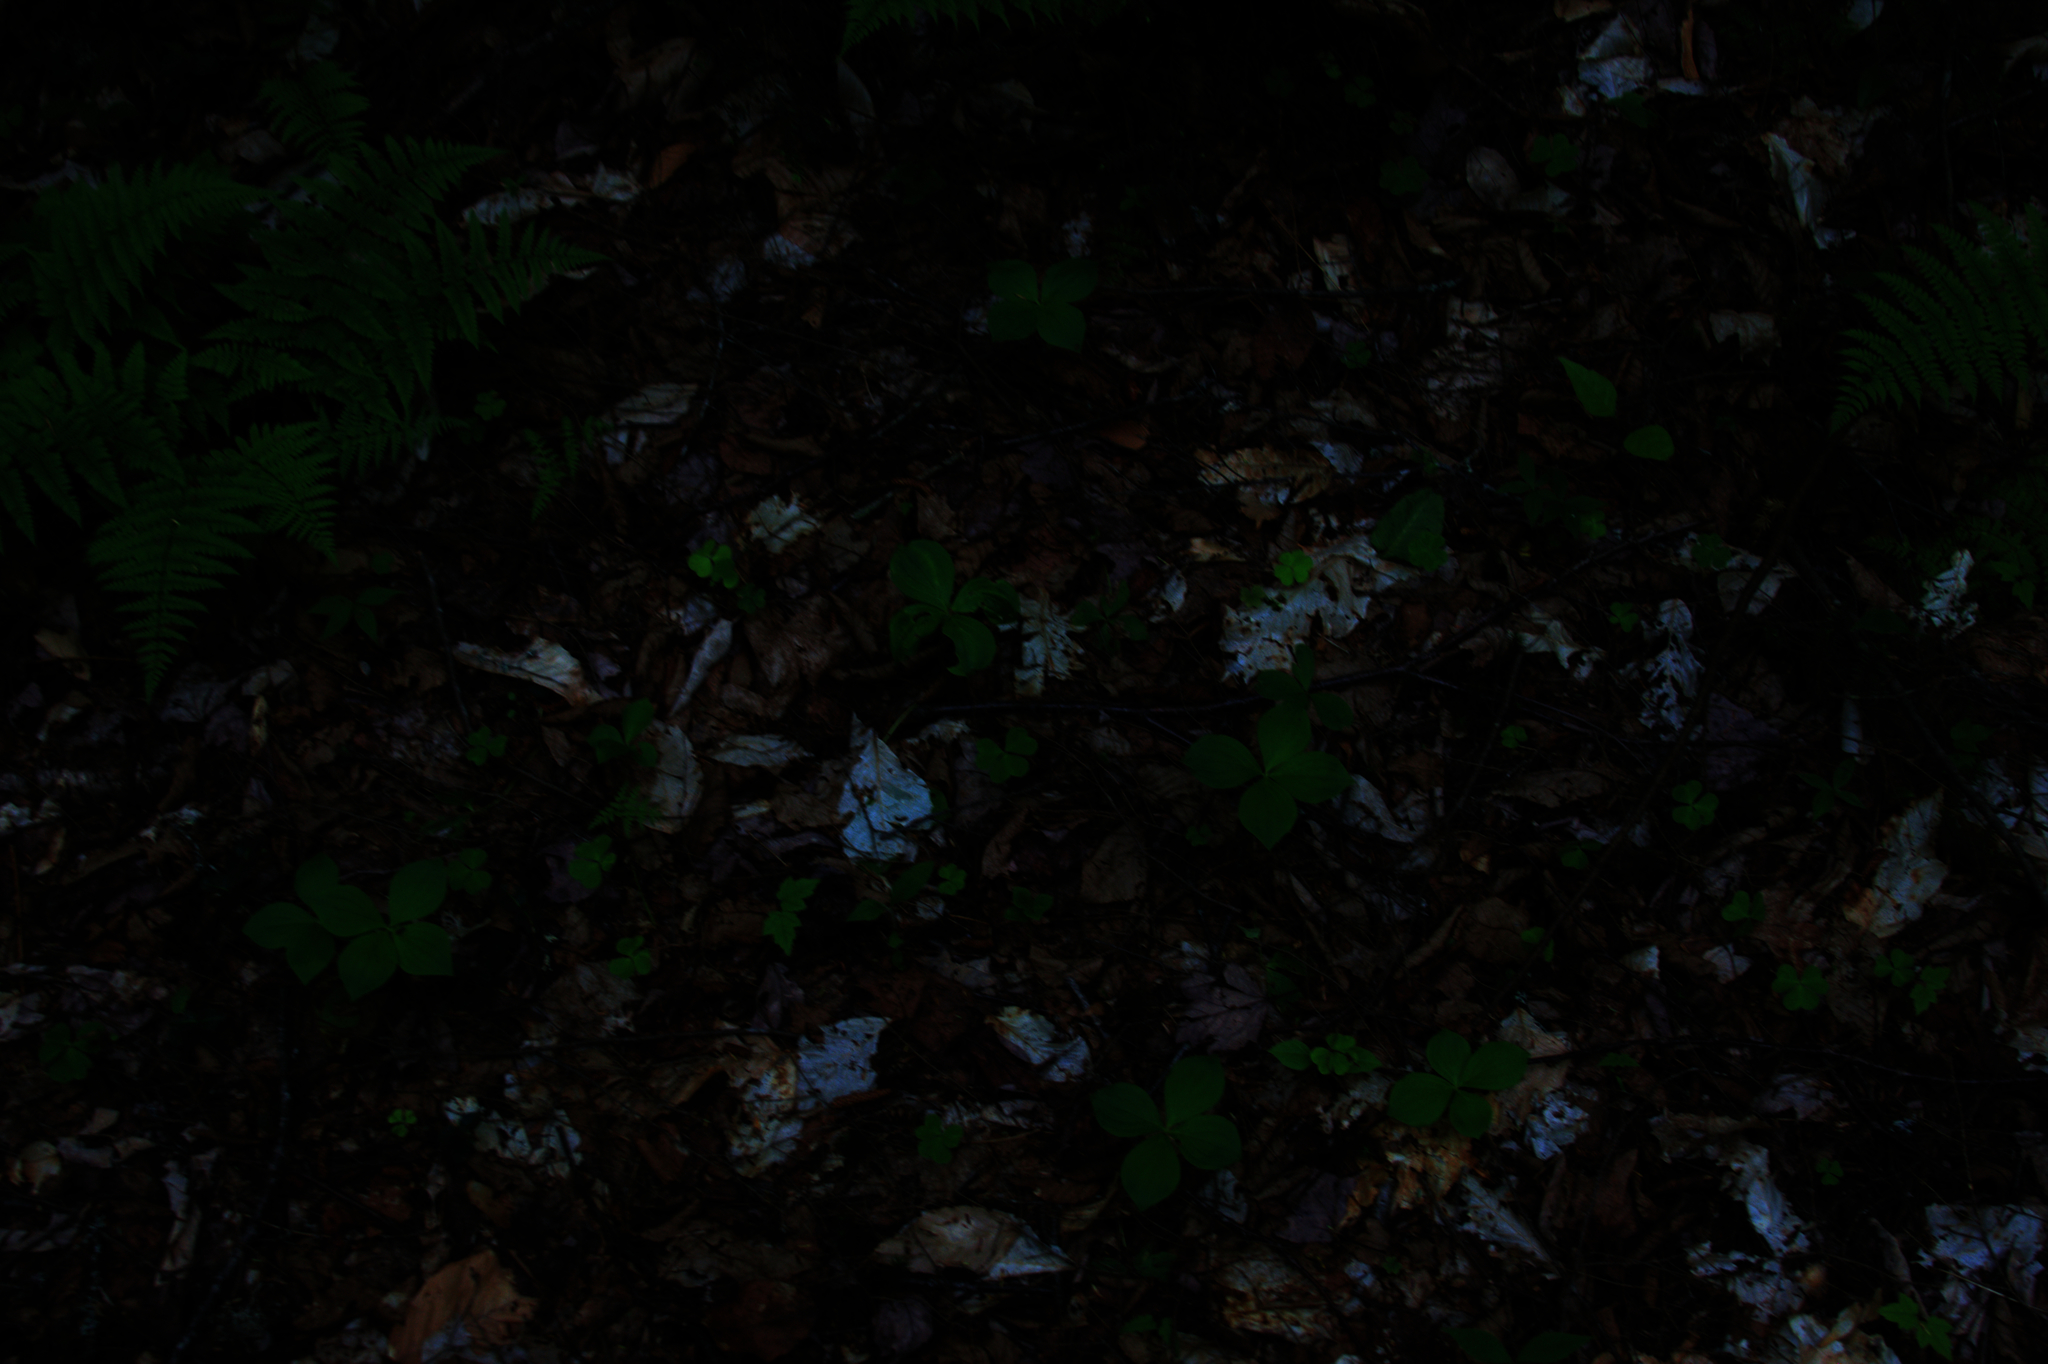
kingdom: Plantae
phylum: Tracheophyta
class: Magnoliopsida
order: Cornales
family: Cornaceae
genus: Cornus
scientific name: Cornus canadensis
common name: Creeping dogwood
